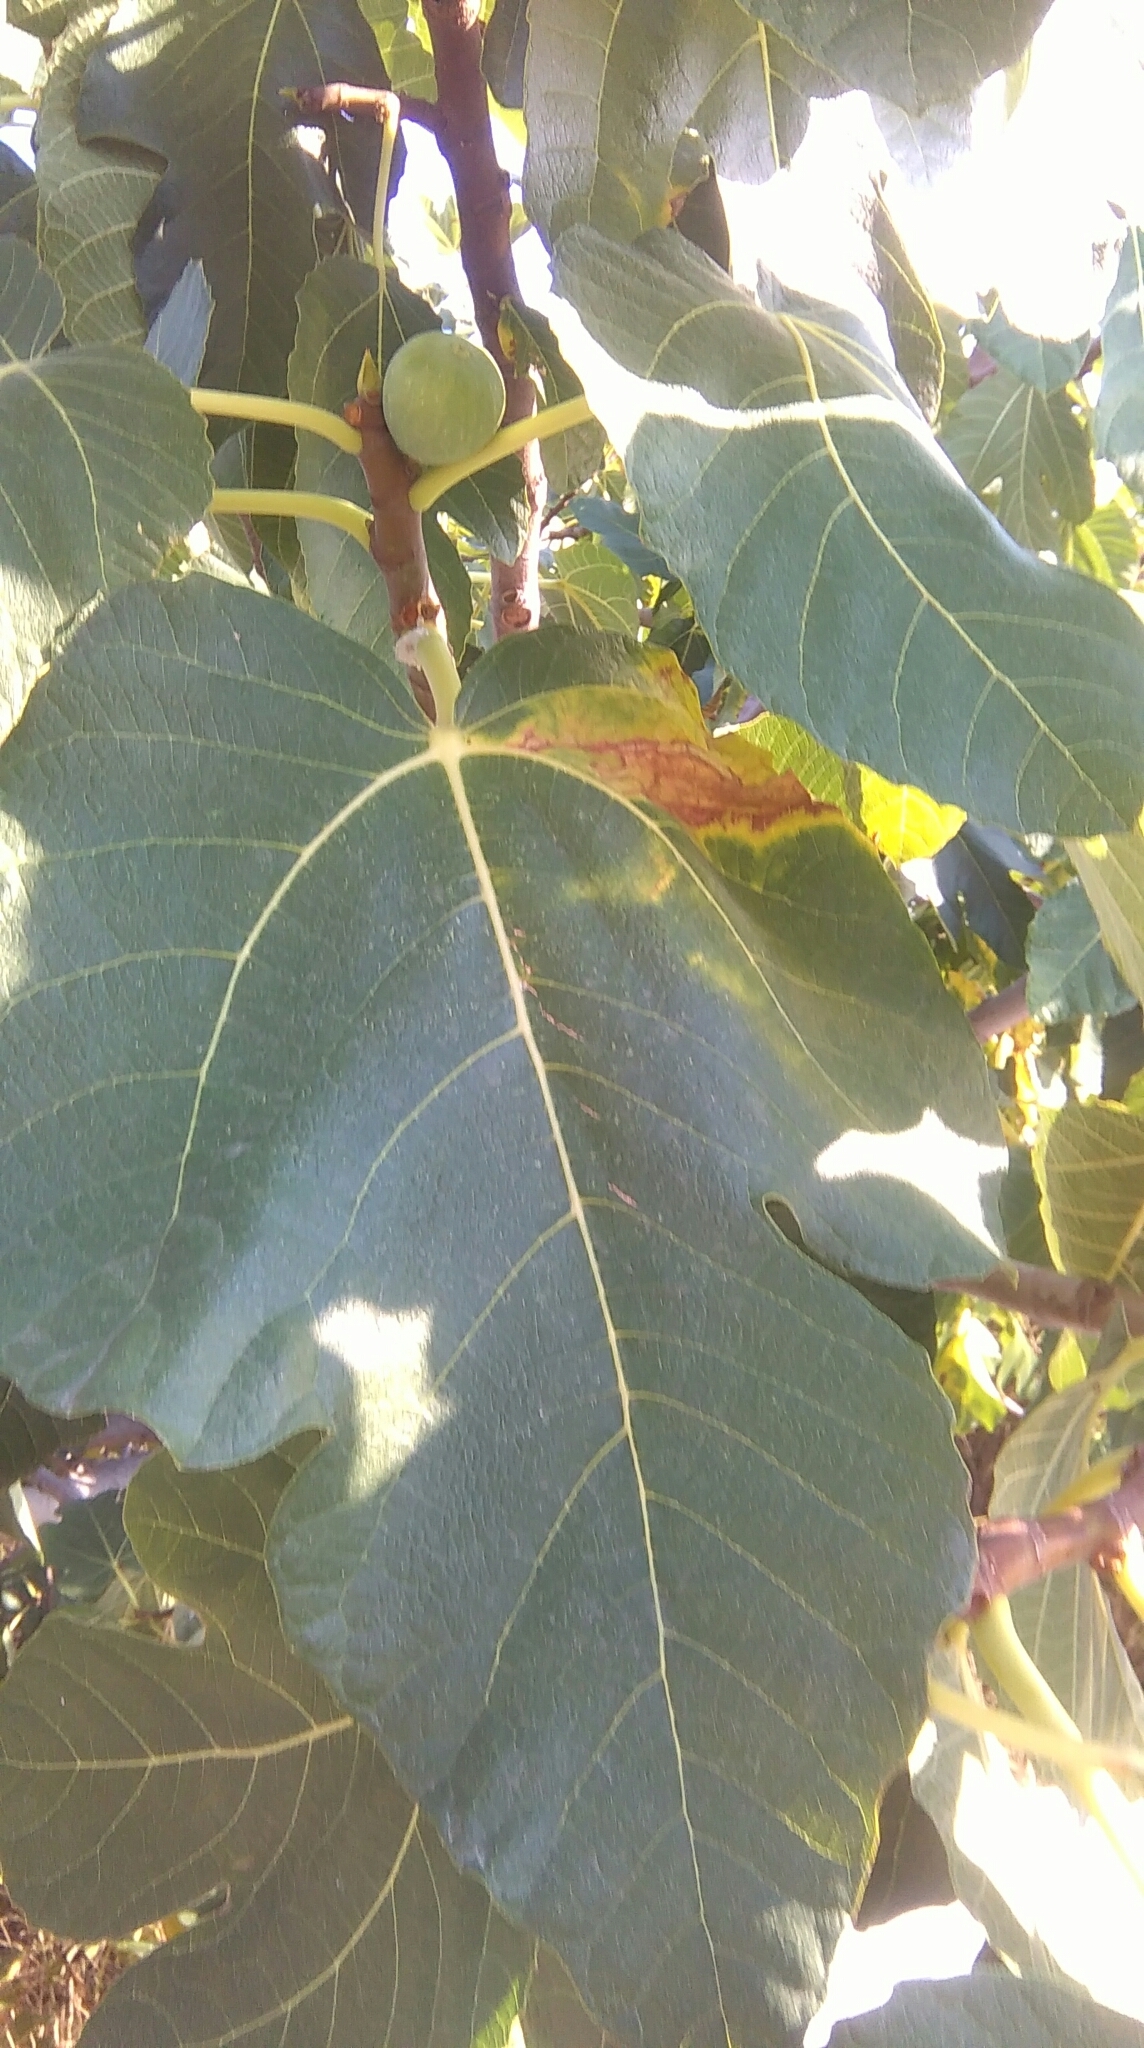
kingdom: Plantae
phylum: Tracheophyta
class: Magnoliopsida
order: Rosales
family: Moraceae
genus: Ficus
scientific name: Ficus carica
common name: Fig
